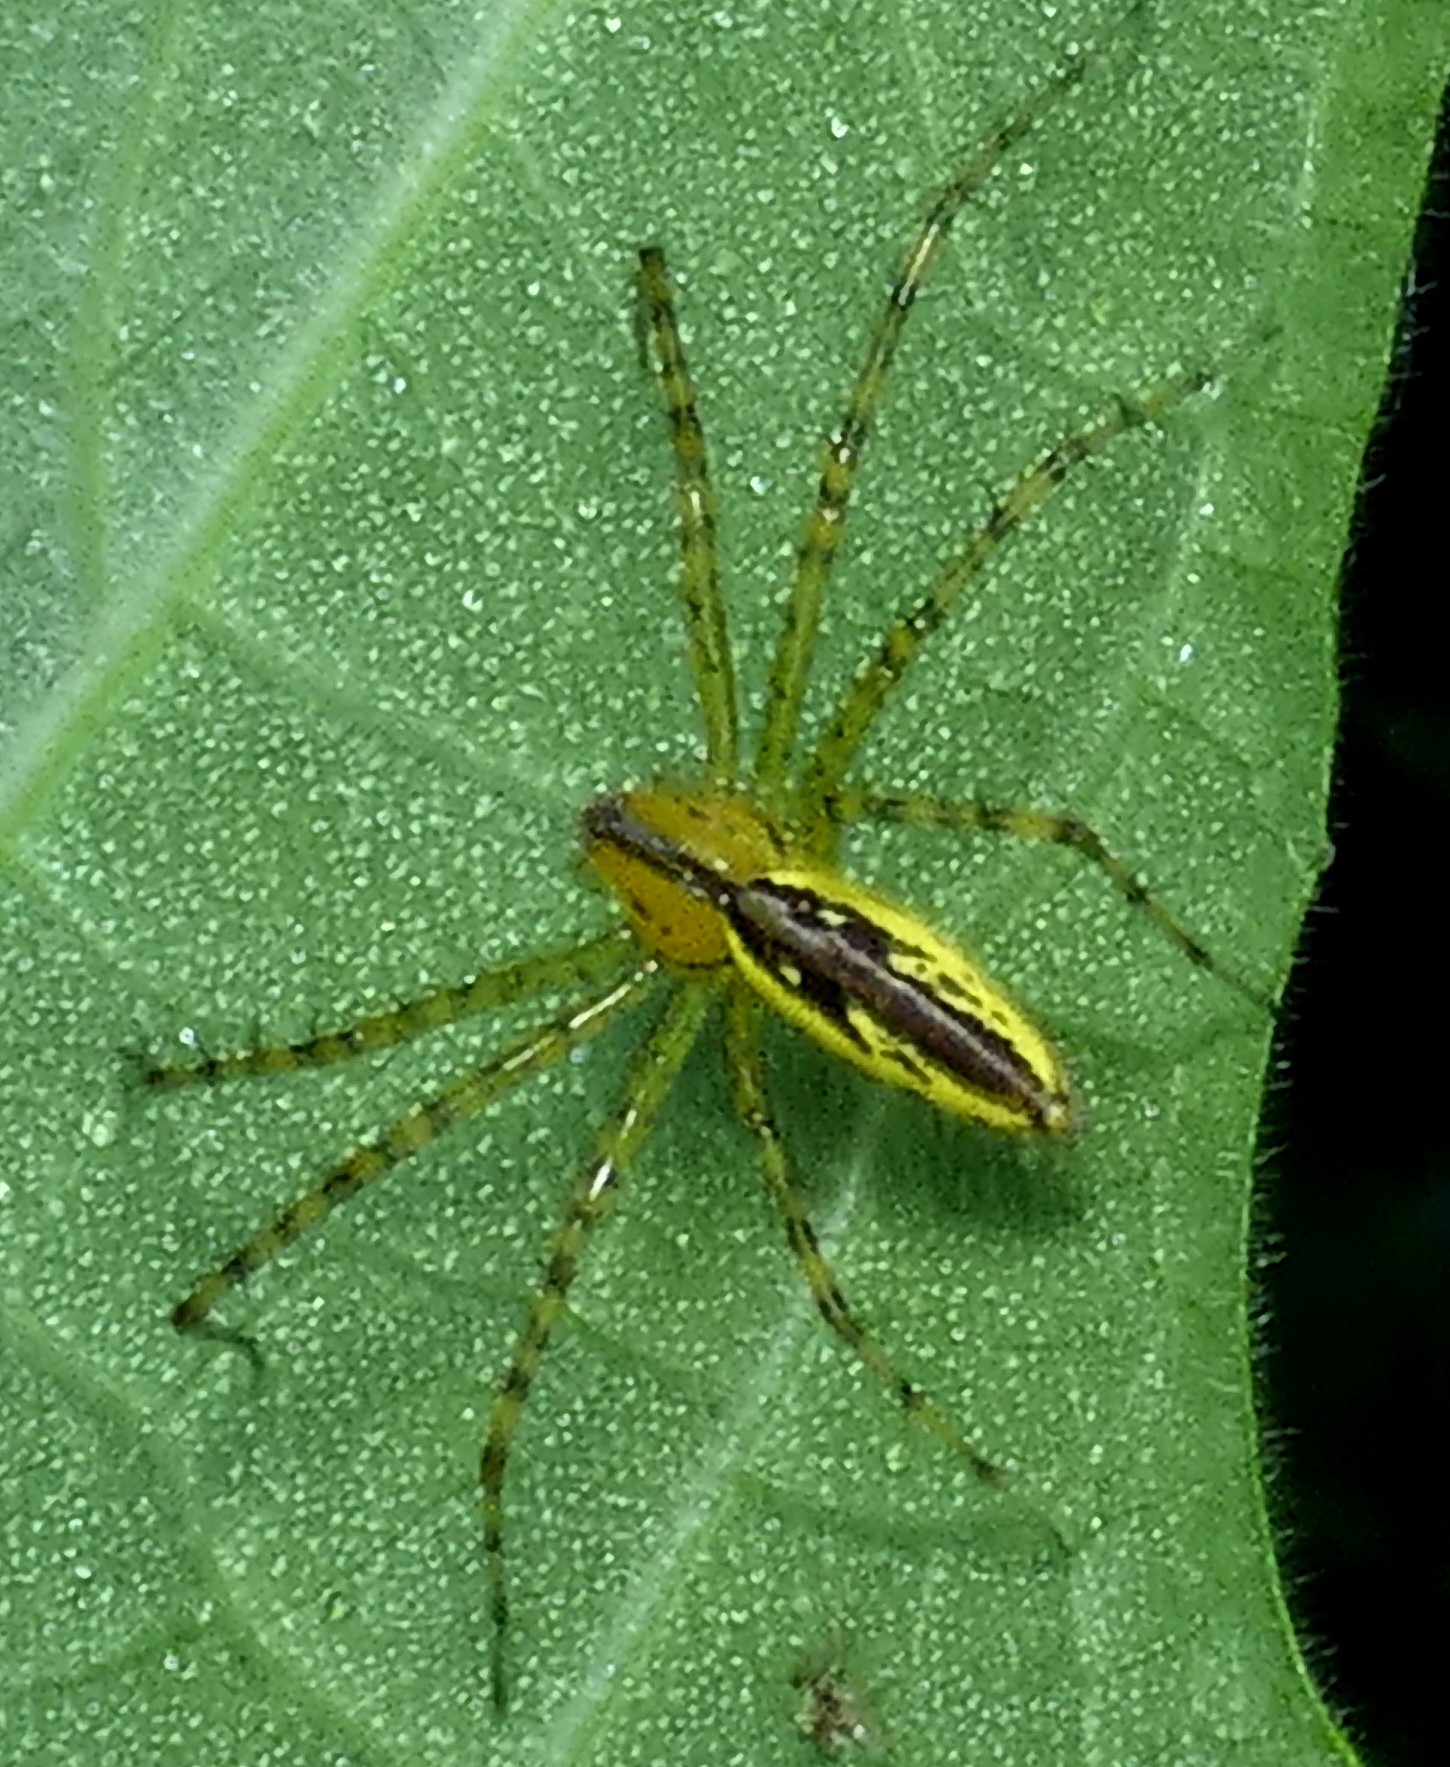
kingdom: Animalia
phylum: Arthropoda
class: Arachnida
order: Araneae
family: Oxyopidae
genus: Peucetia
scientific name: Peucetia rubrolineata
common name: Lynx spiders
